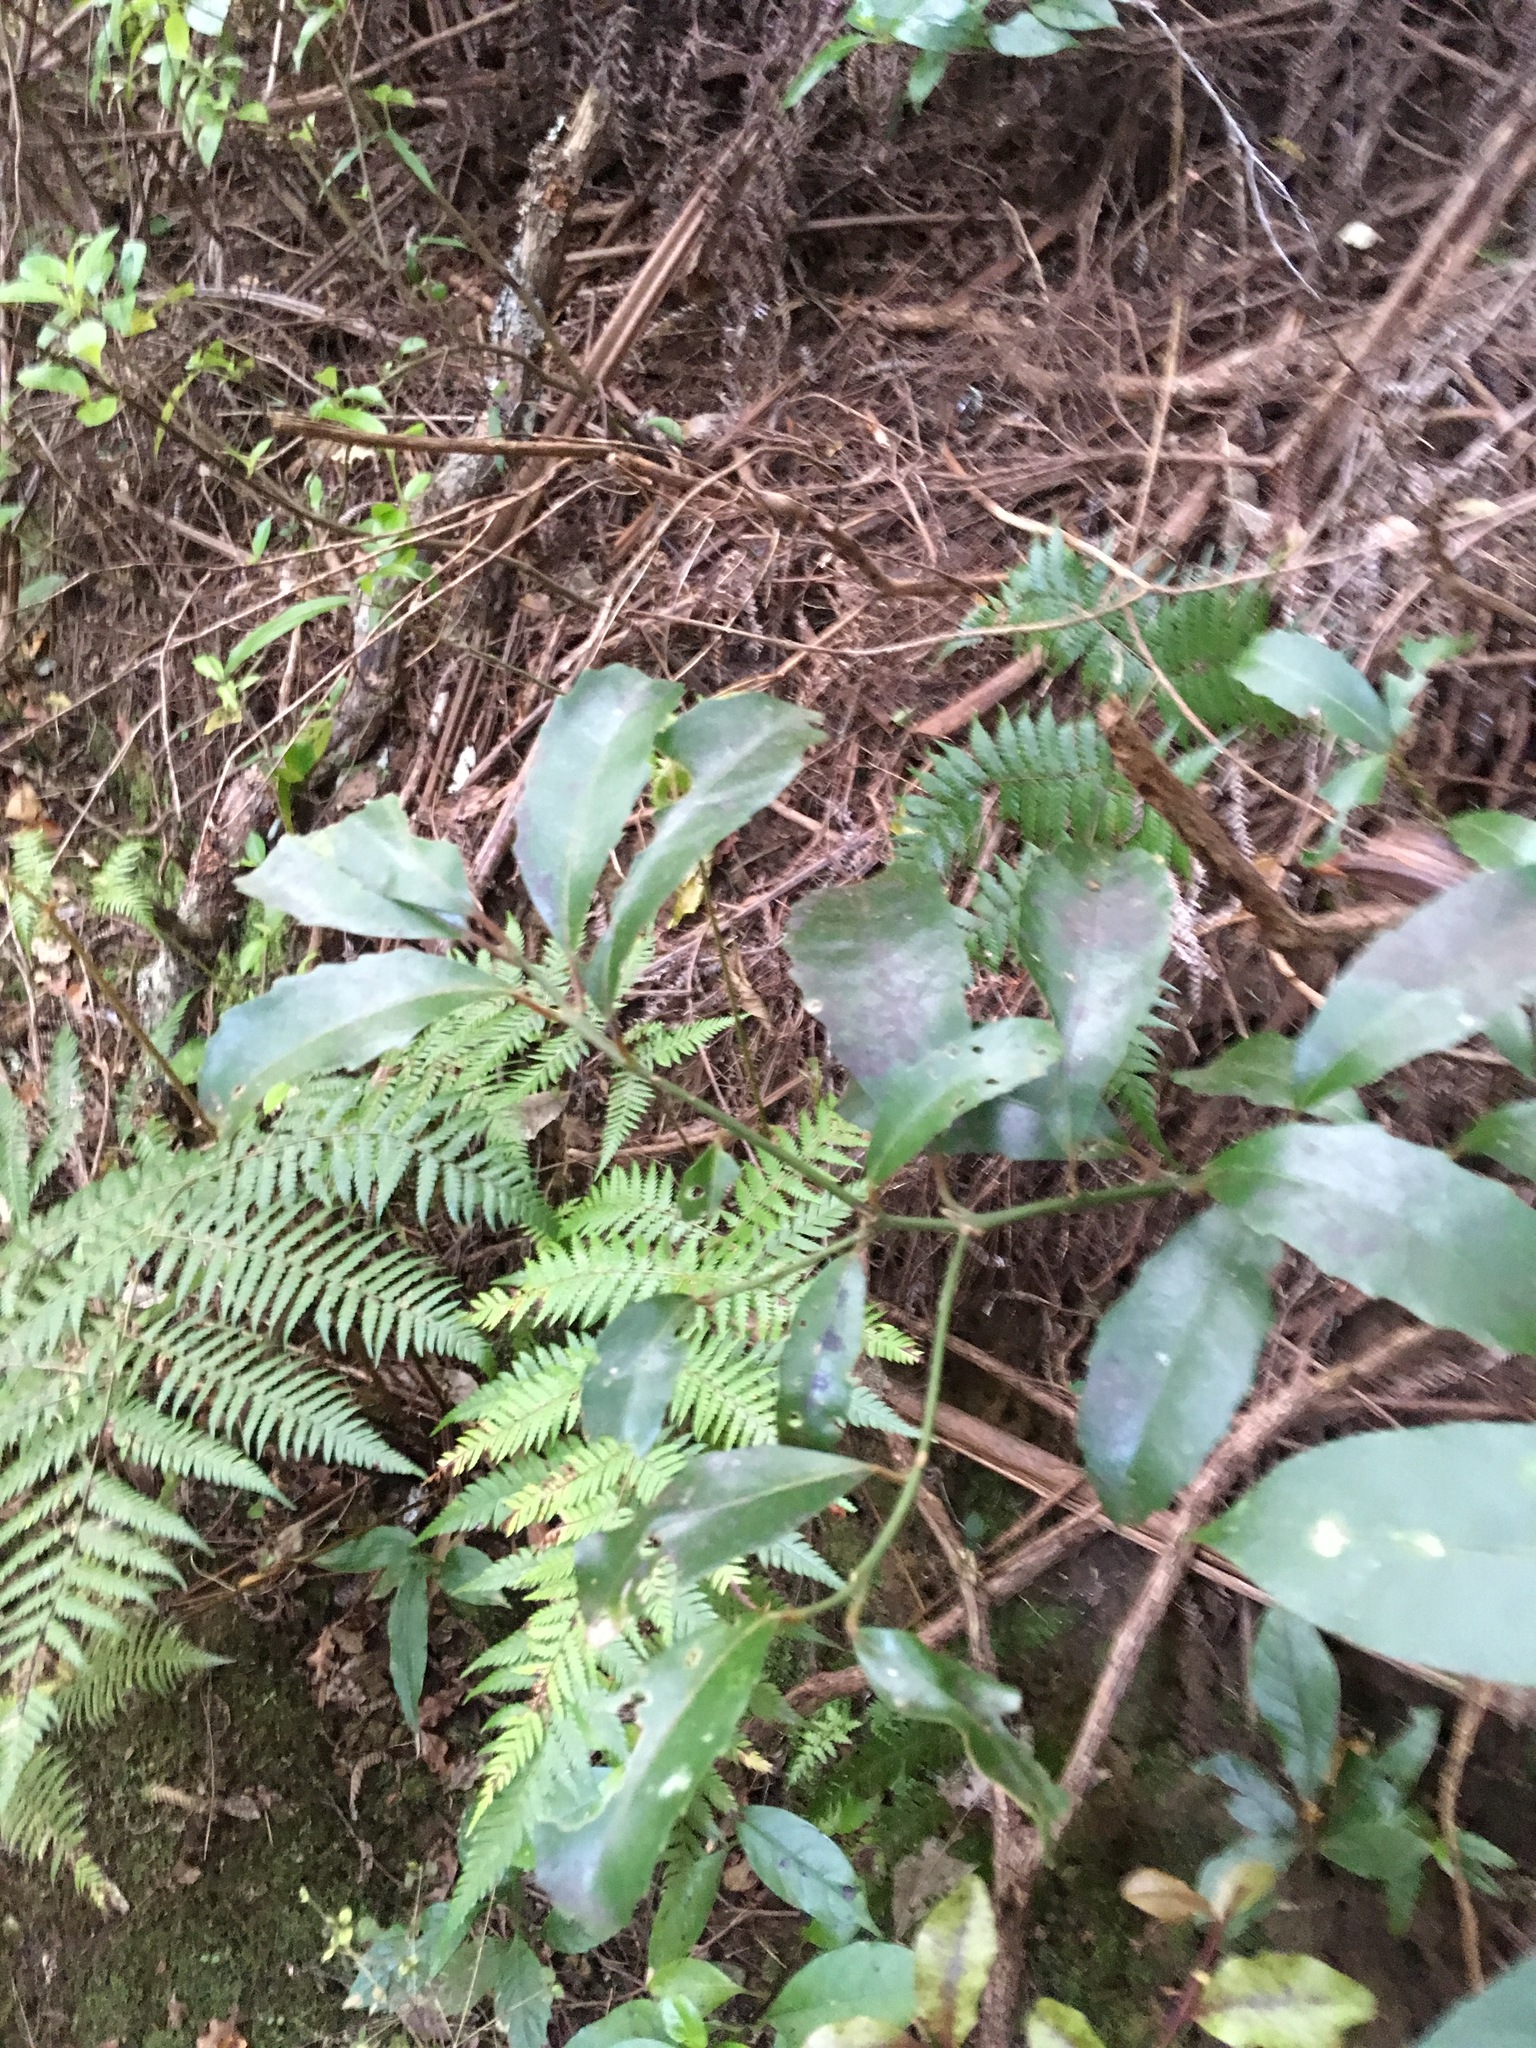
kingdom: Plantae
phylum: Tracheophyta
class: Polypodiopsida
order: Cyatheales
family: Cyatheaceae
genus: Alsophila
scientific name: Alsophila dealbata
